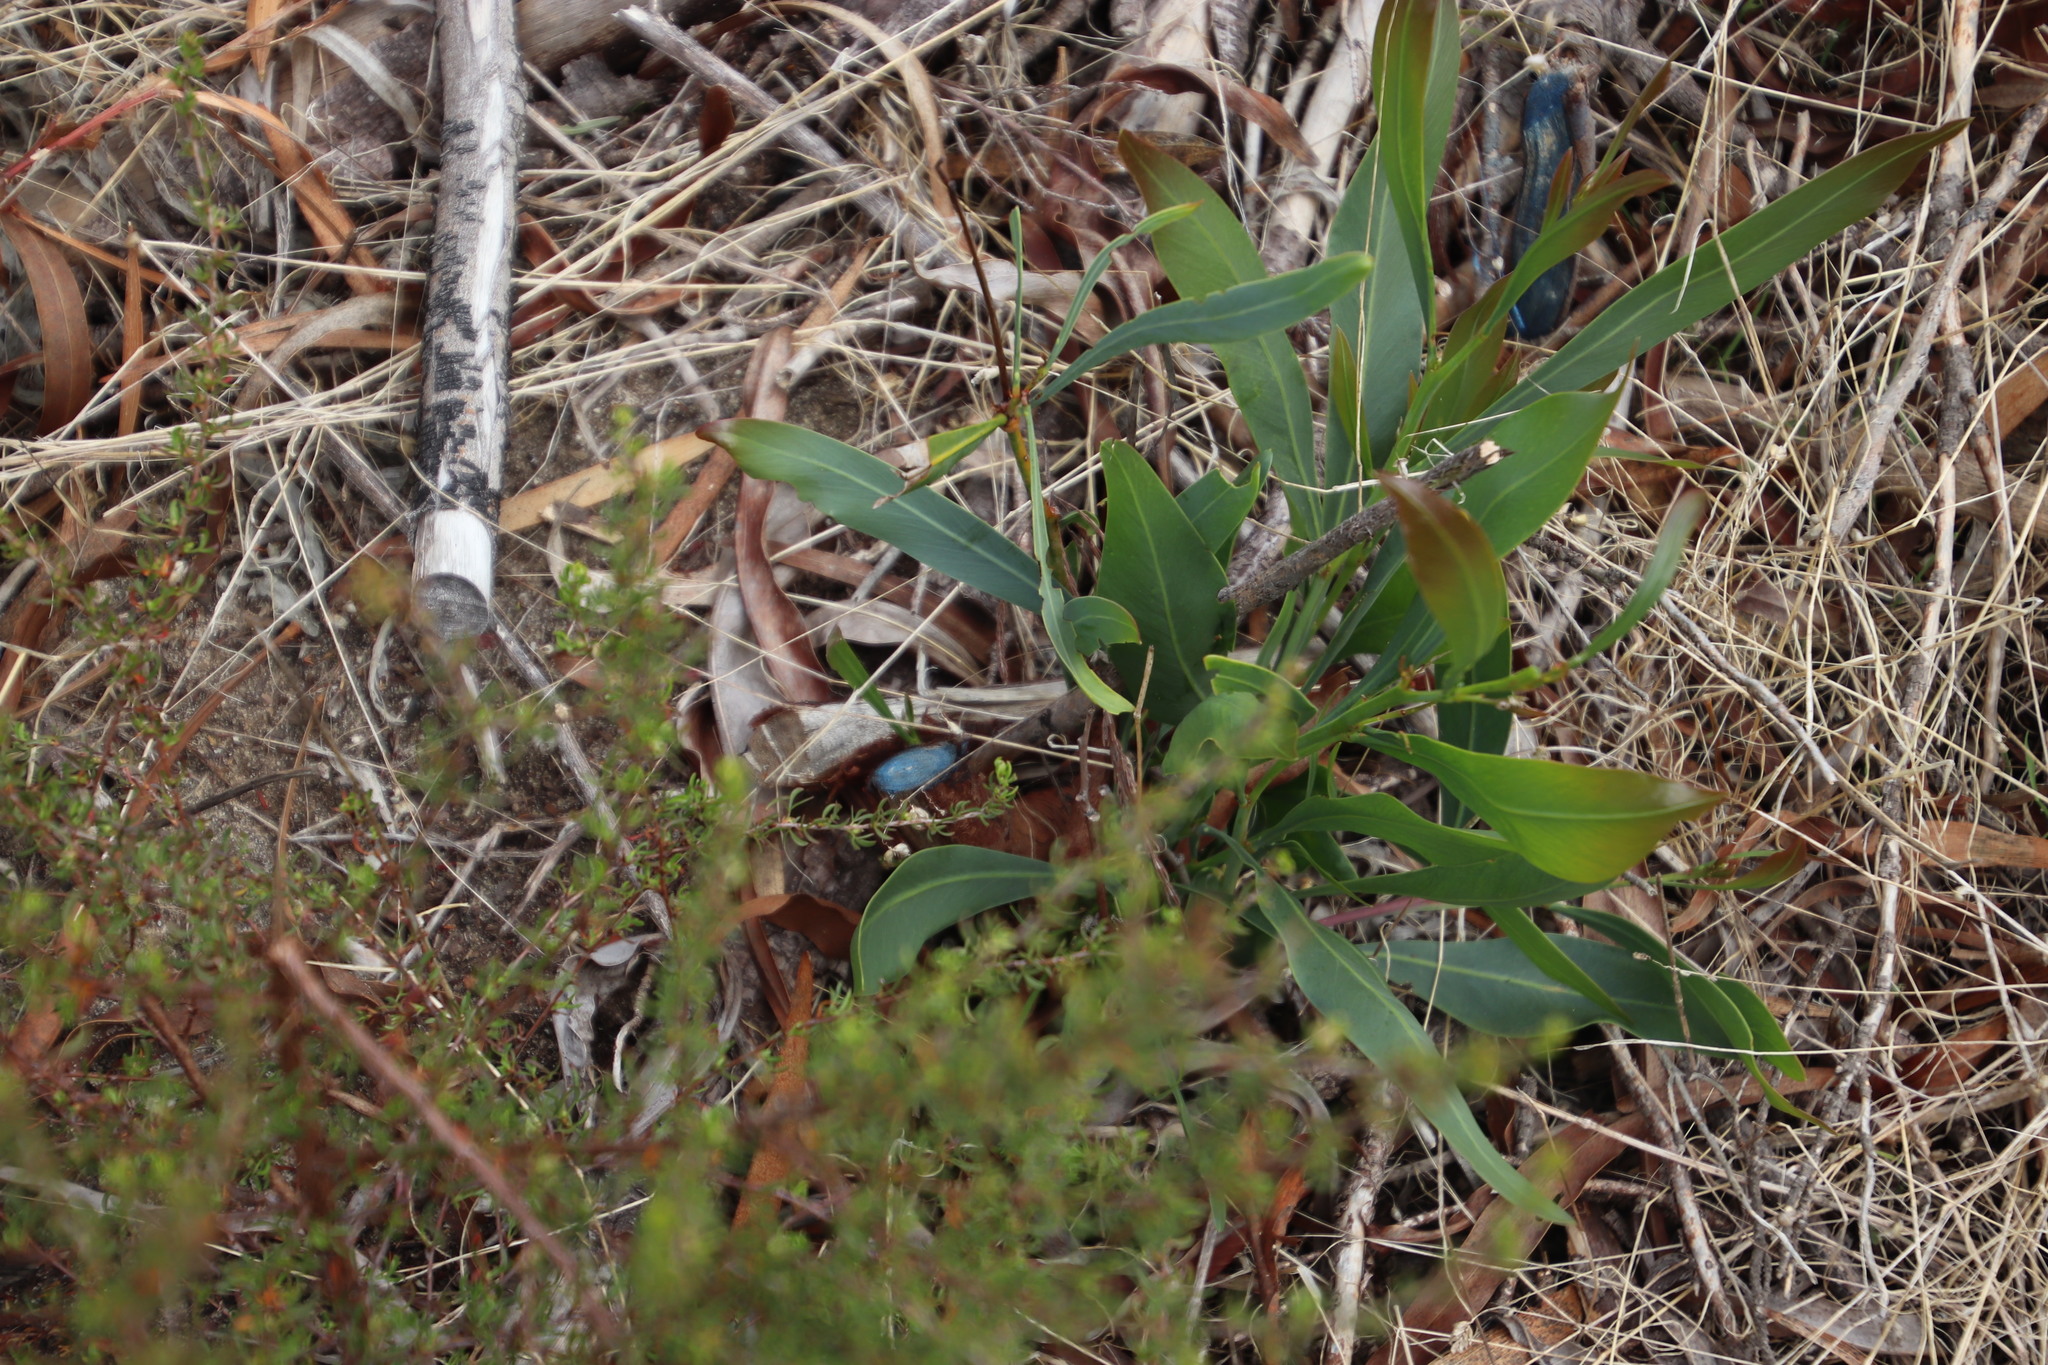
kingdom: Plantae
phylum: Tracheophyta
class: Magnoliopsida
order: Fabales
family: Fabaceae
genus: Acacia
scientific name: Acacia saligna
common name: Orange wattle
